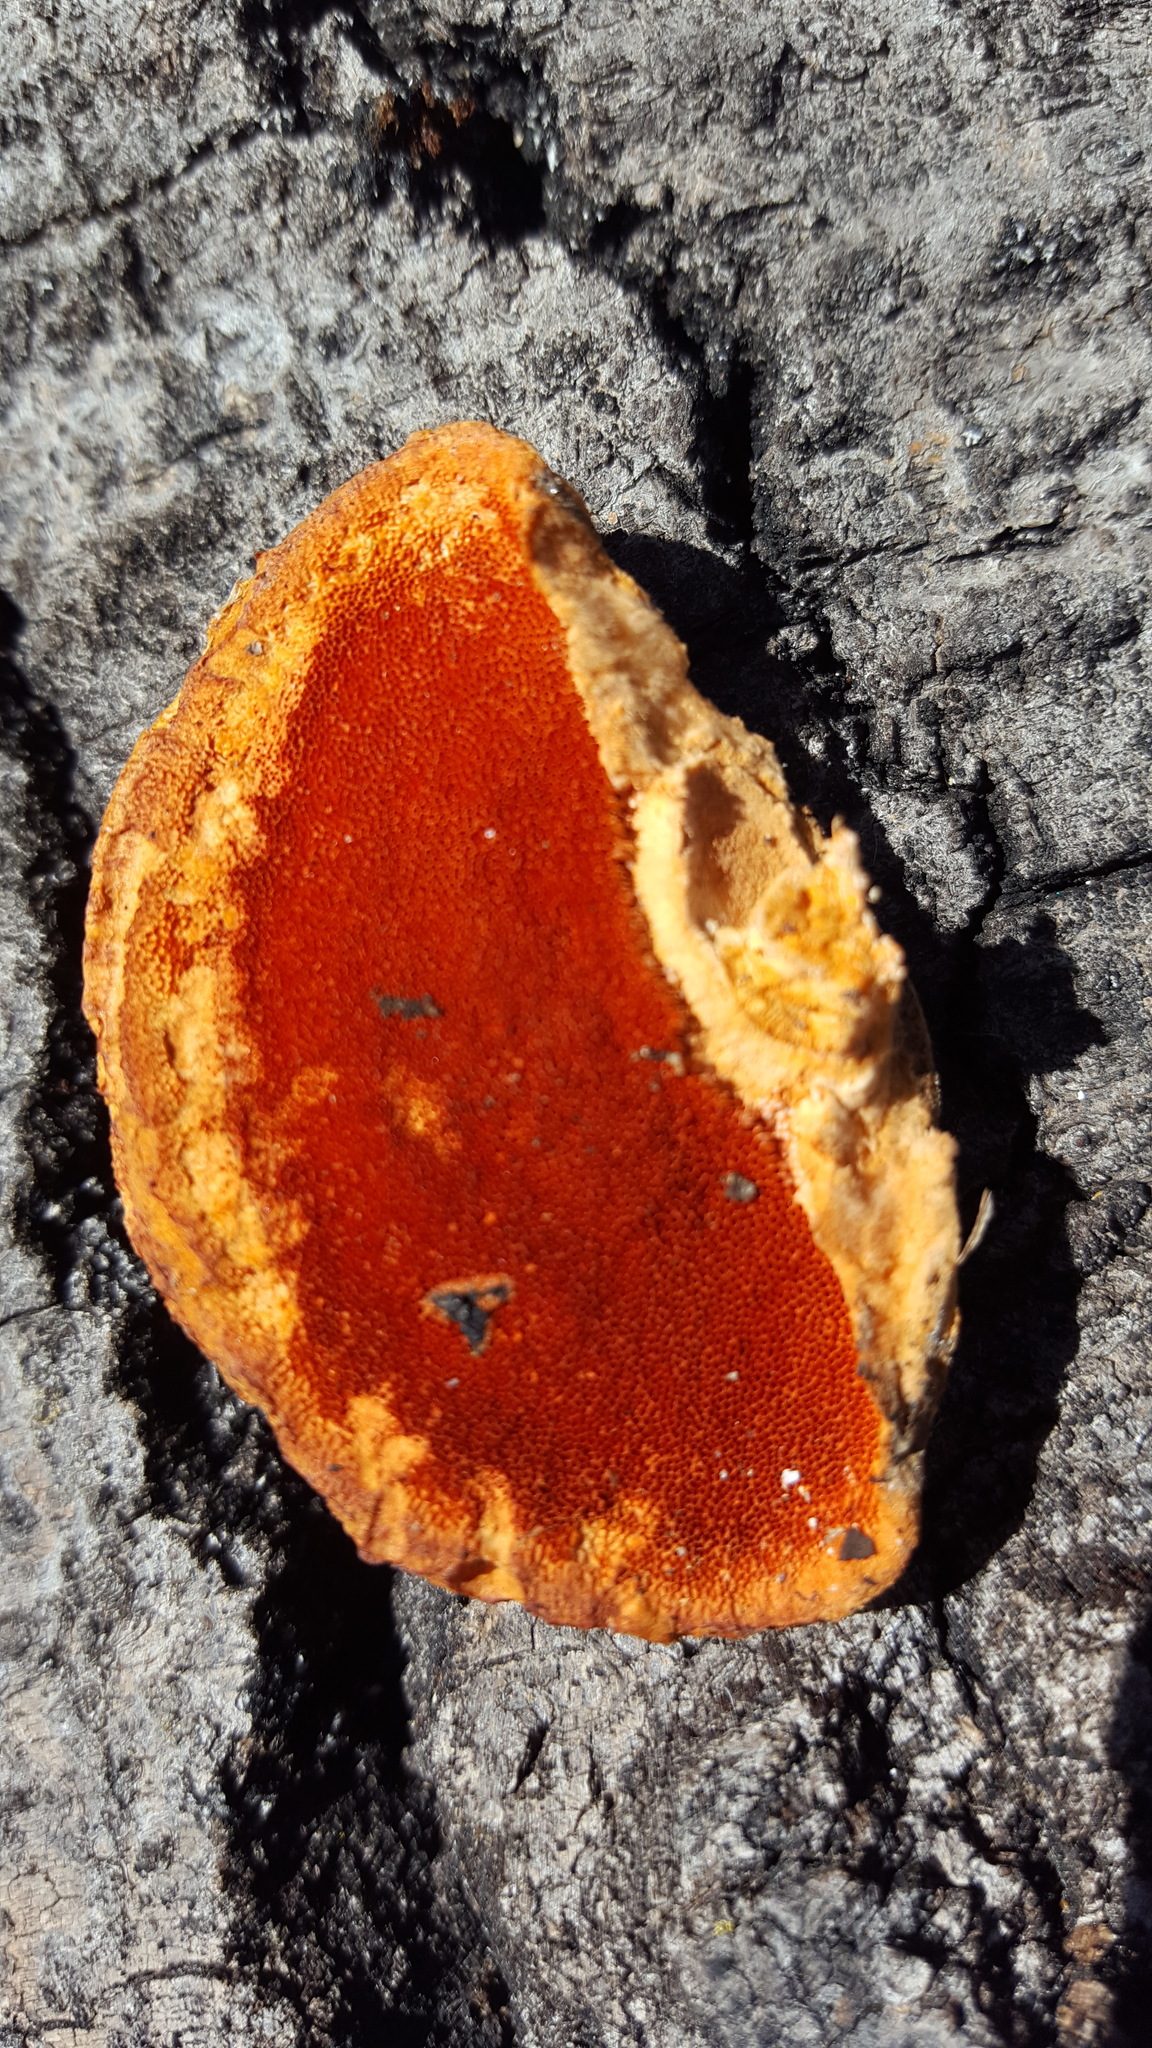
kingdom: Fungi
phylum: Basidiomycota
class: Agaricomycetes
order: Polyporales
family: Polyporaceae
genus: Trametes
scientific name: Trametes cinnabarina
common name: Northern cinnabar polypore
